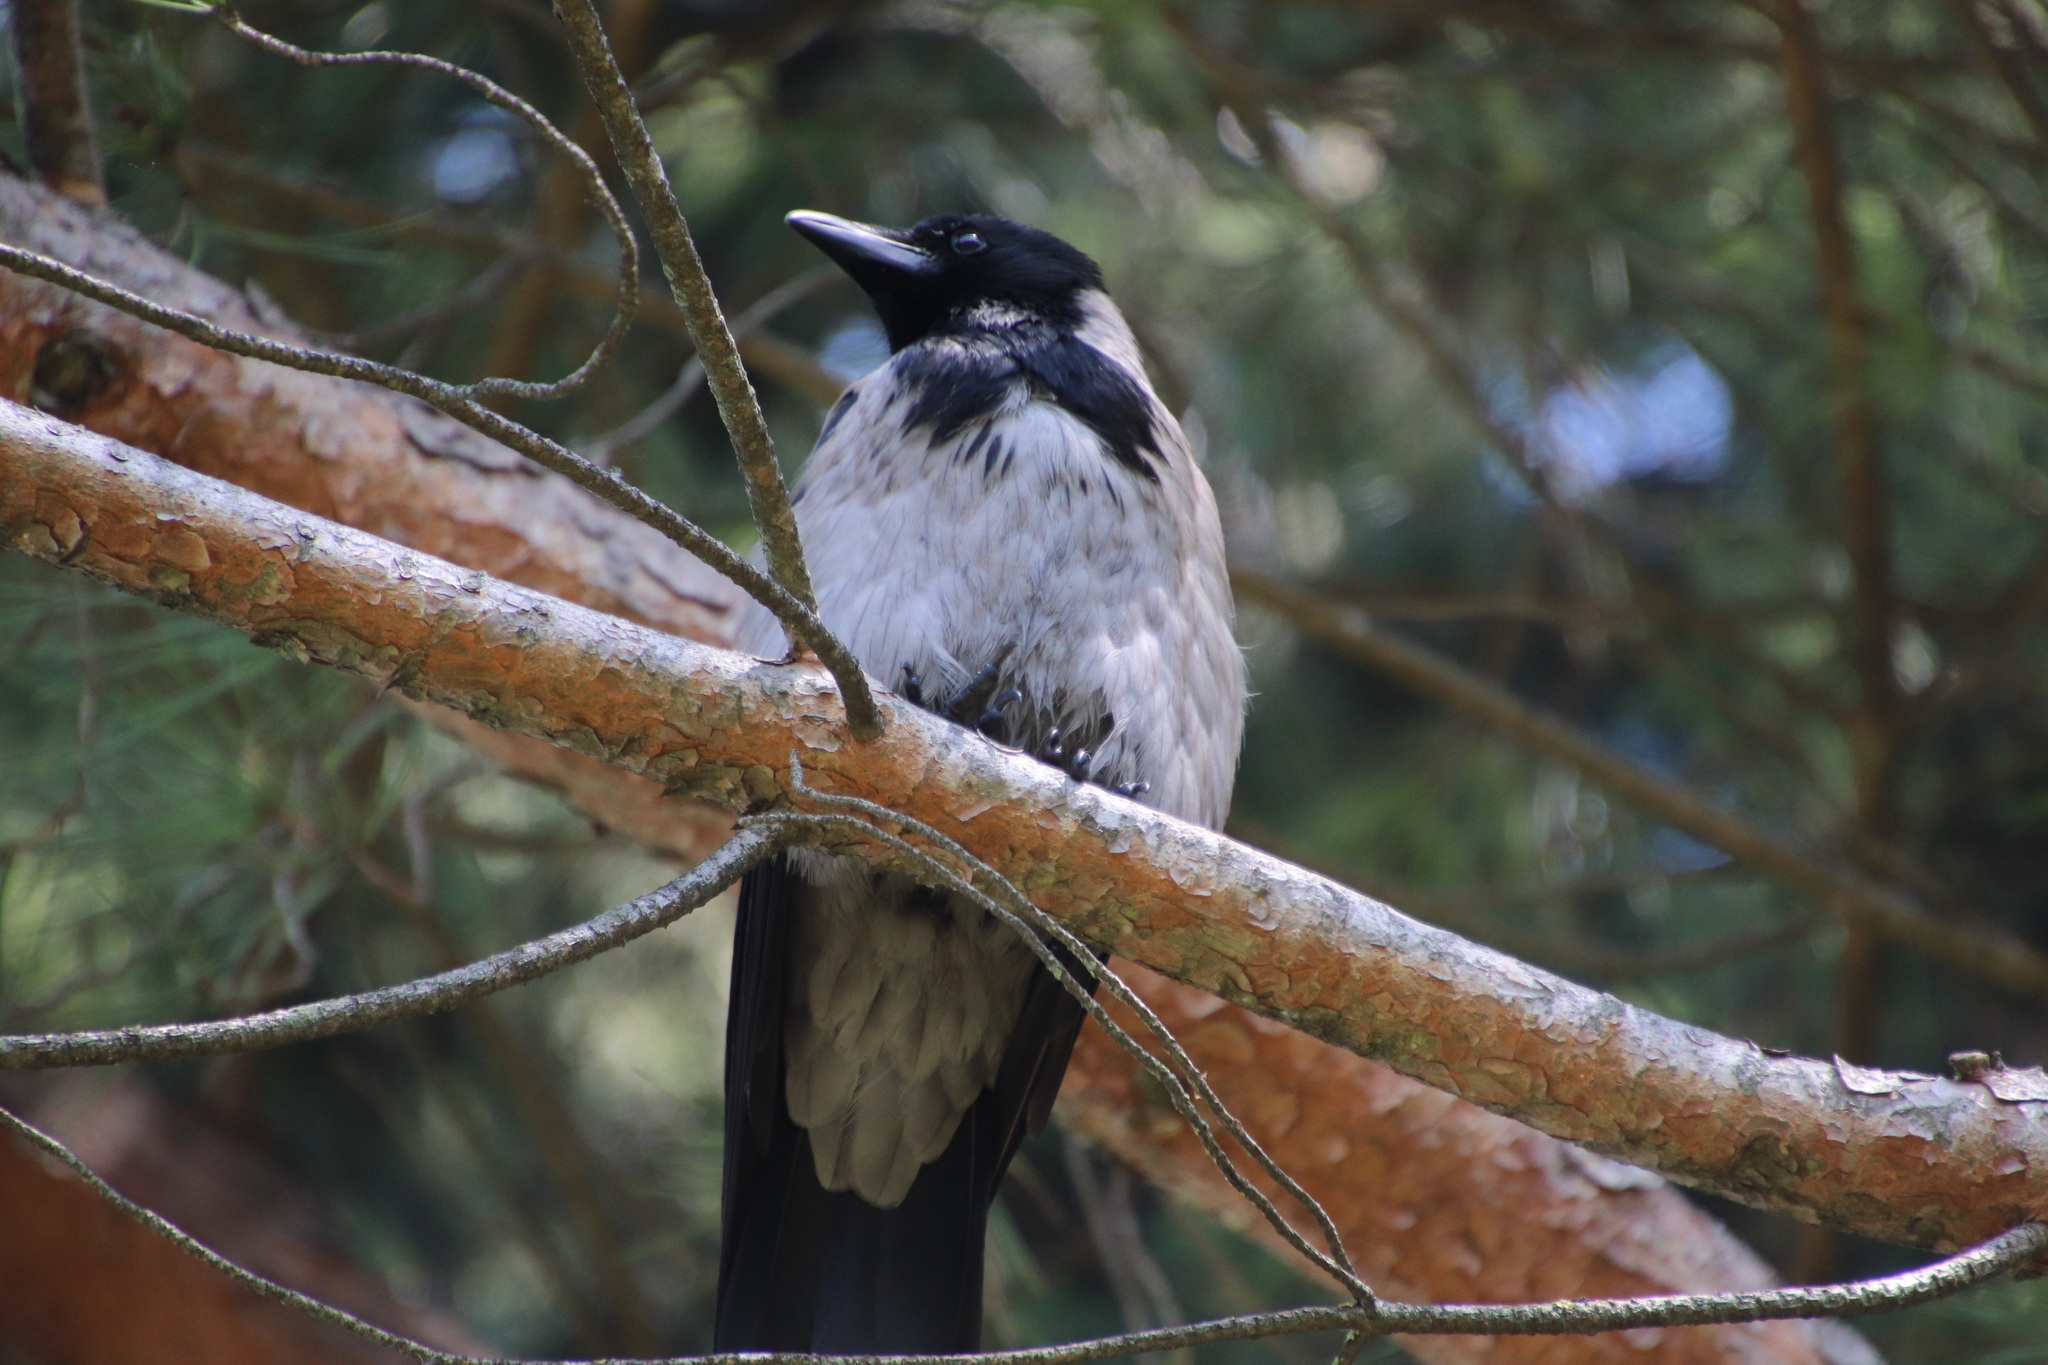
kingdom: Animalia
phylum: Chordata
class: Aves
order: Passeriformes
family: Corvidae
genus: Corvus
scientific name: Corvus cornix
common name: Hooded crow
